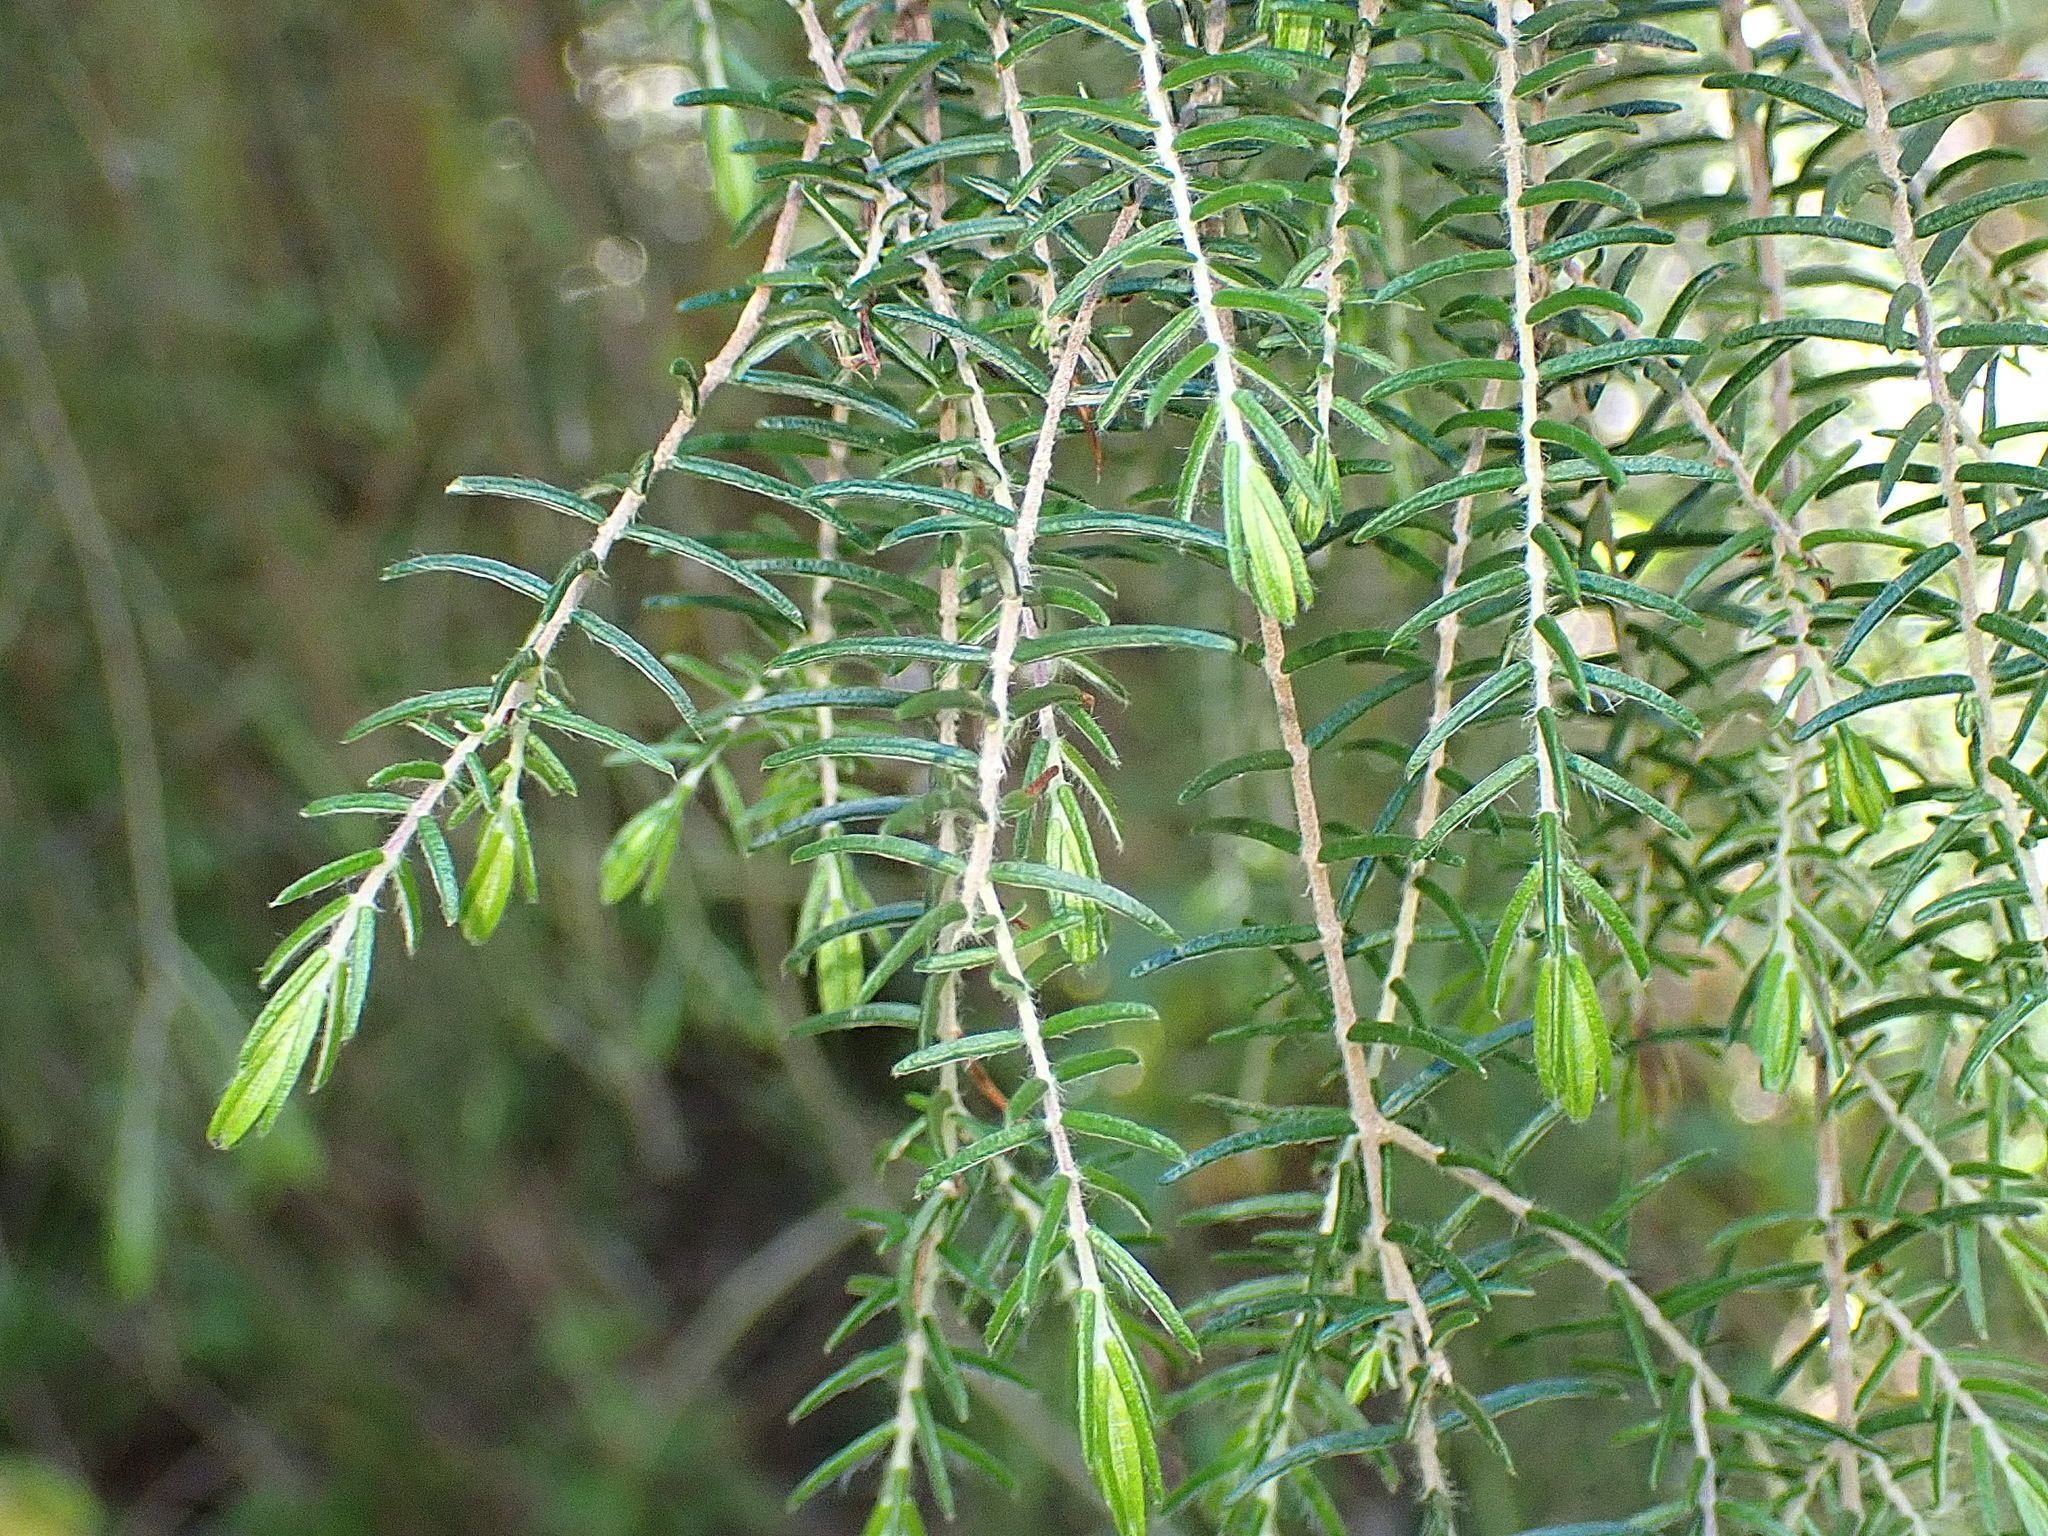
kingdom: Plantae
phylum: Tracheophyta
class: Magnoliopsida
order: Malvales
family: Thymelaeaceae
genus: Passerina
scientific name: Passerina falcifolia
